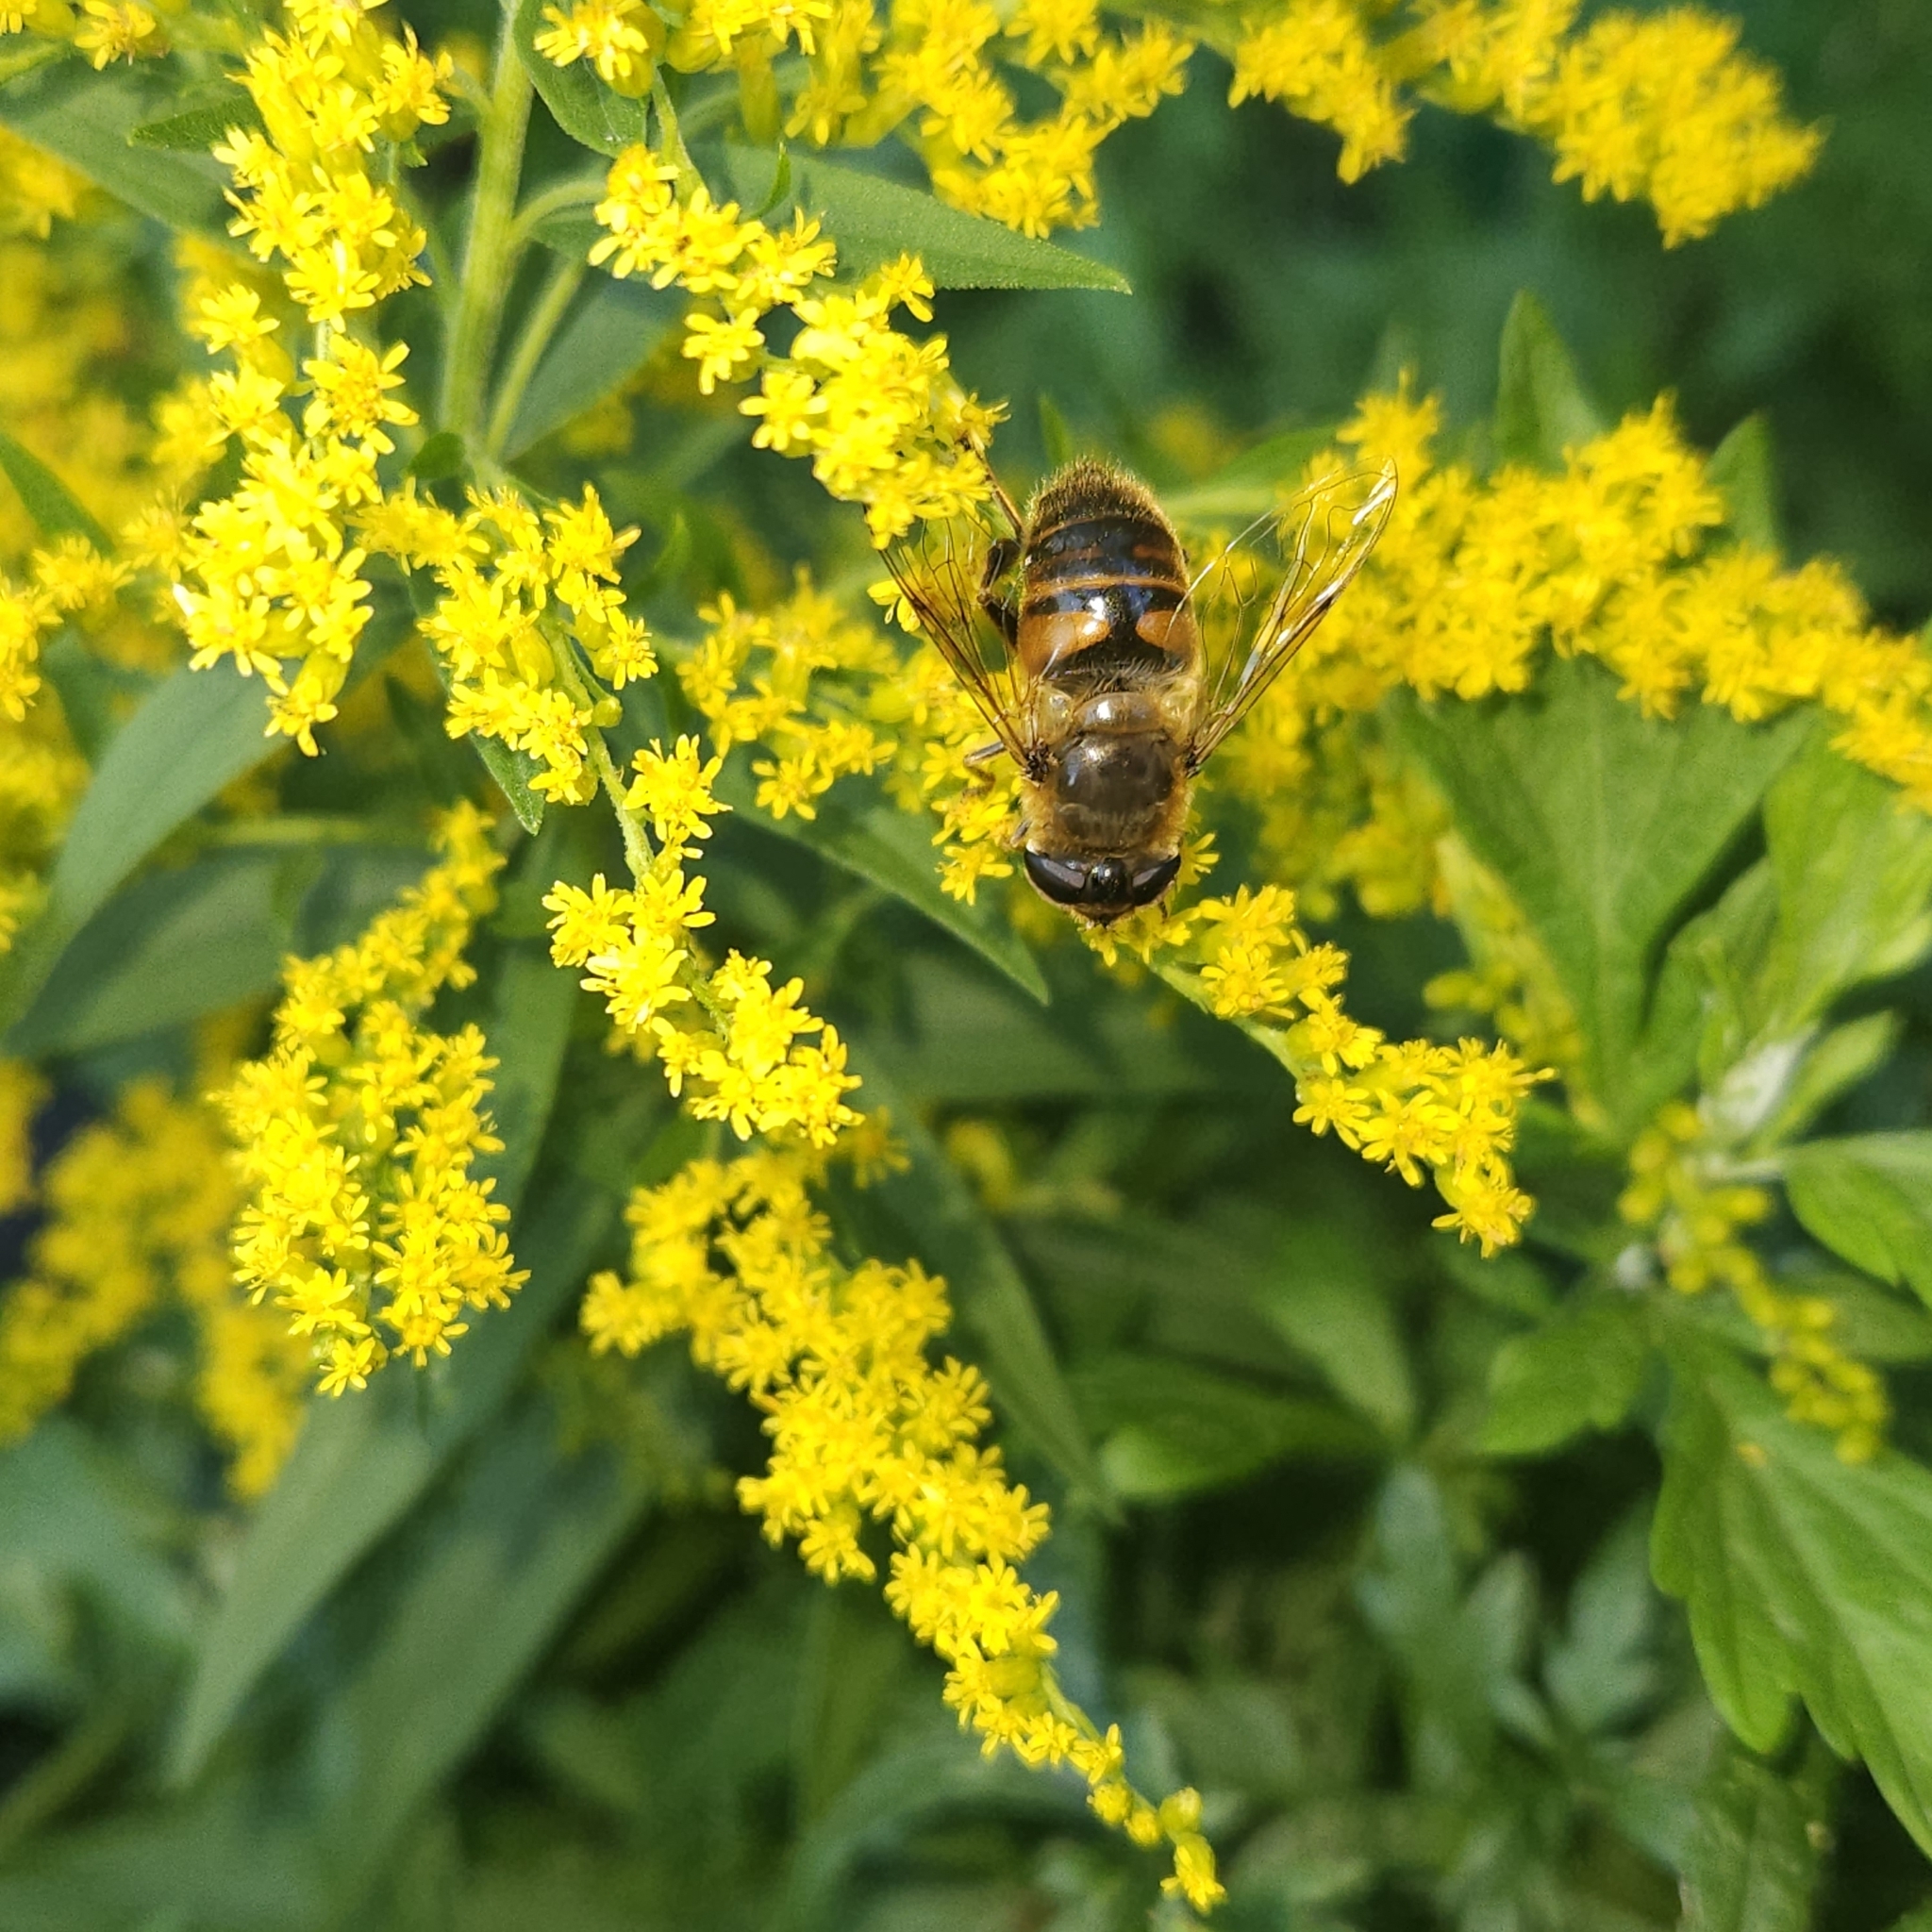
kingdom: Animalia
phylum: Arthropoda
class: Insecta
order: Diptera
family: Syrphidae
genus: Eristalis
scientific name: Eristalis tenax
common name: Drone fly
